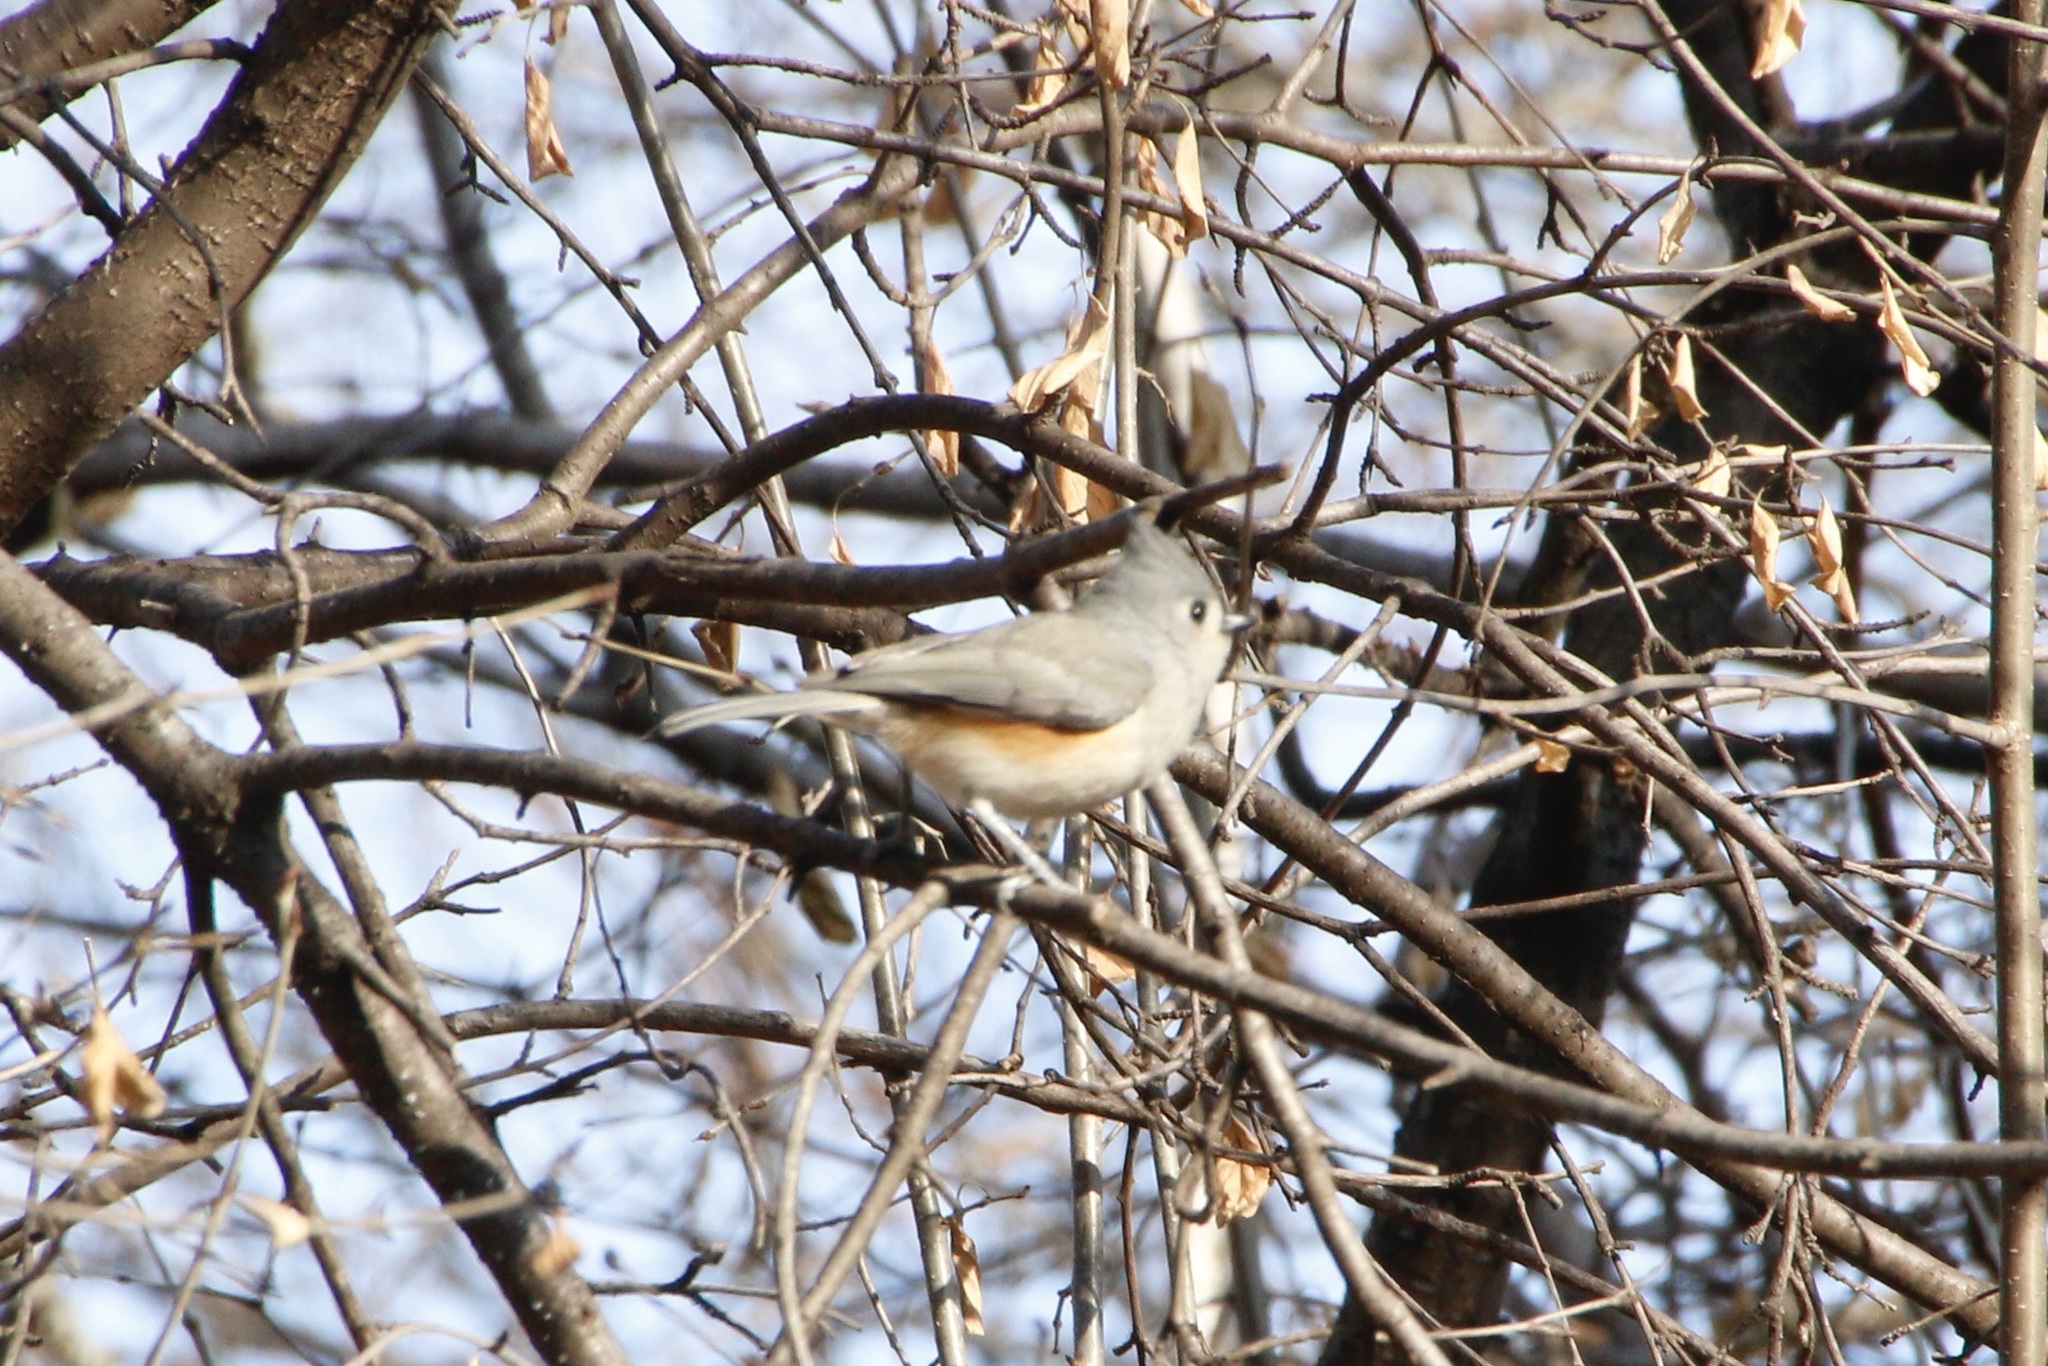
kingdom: Animalia
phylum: Chordata
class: Aves
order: Passeriformes
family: Paridae
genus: Baeolophus
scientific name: Baeolophus bicolor
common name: Tufted titmouse
